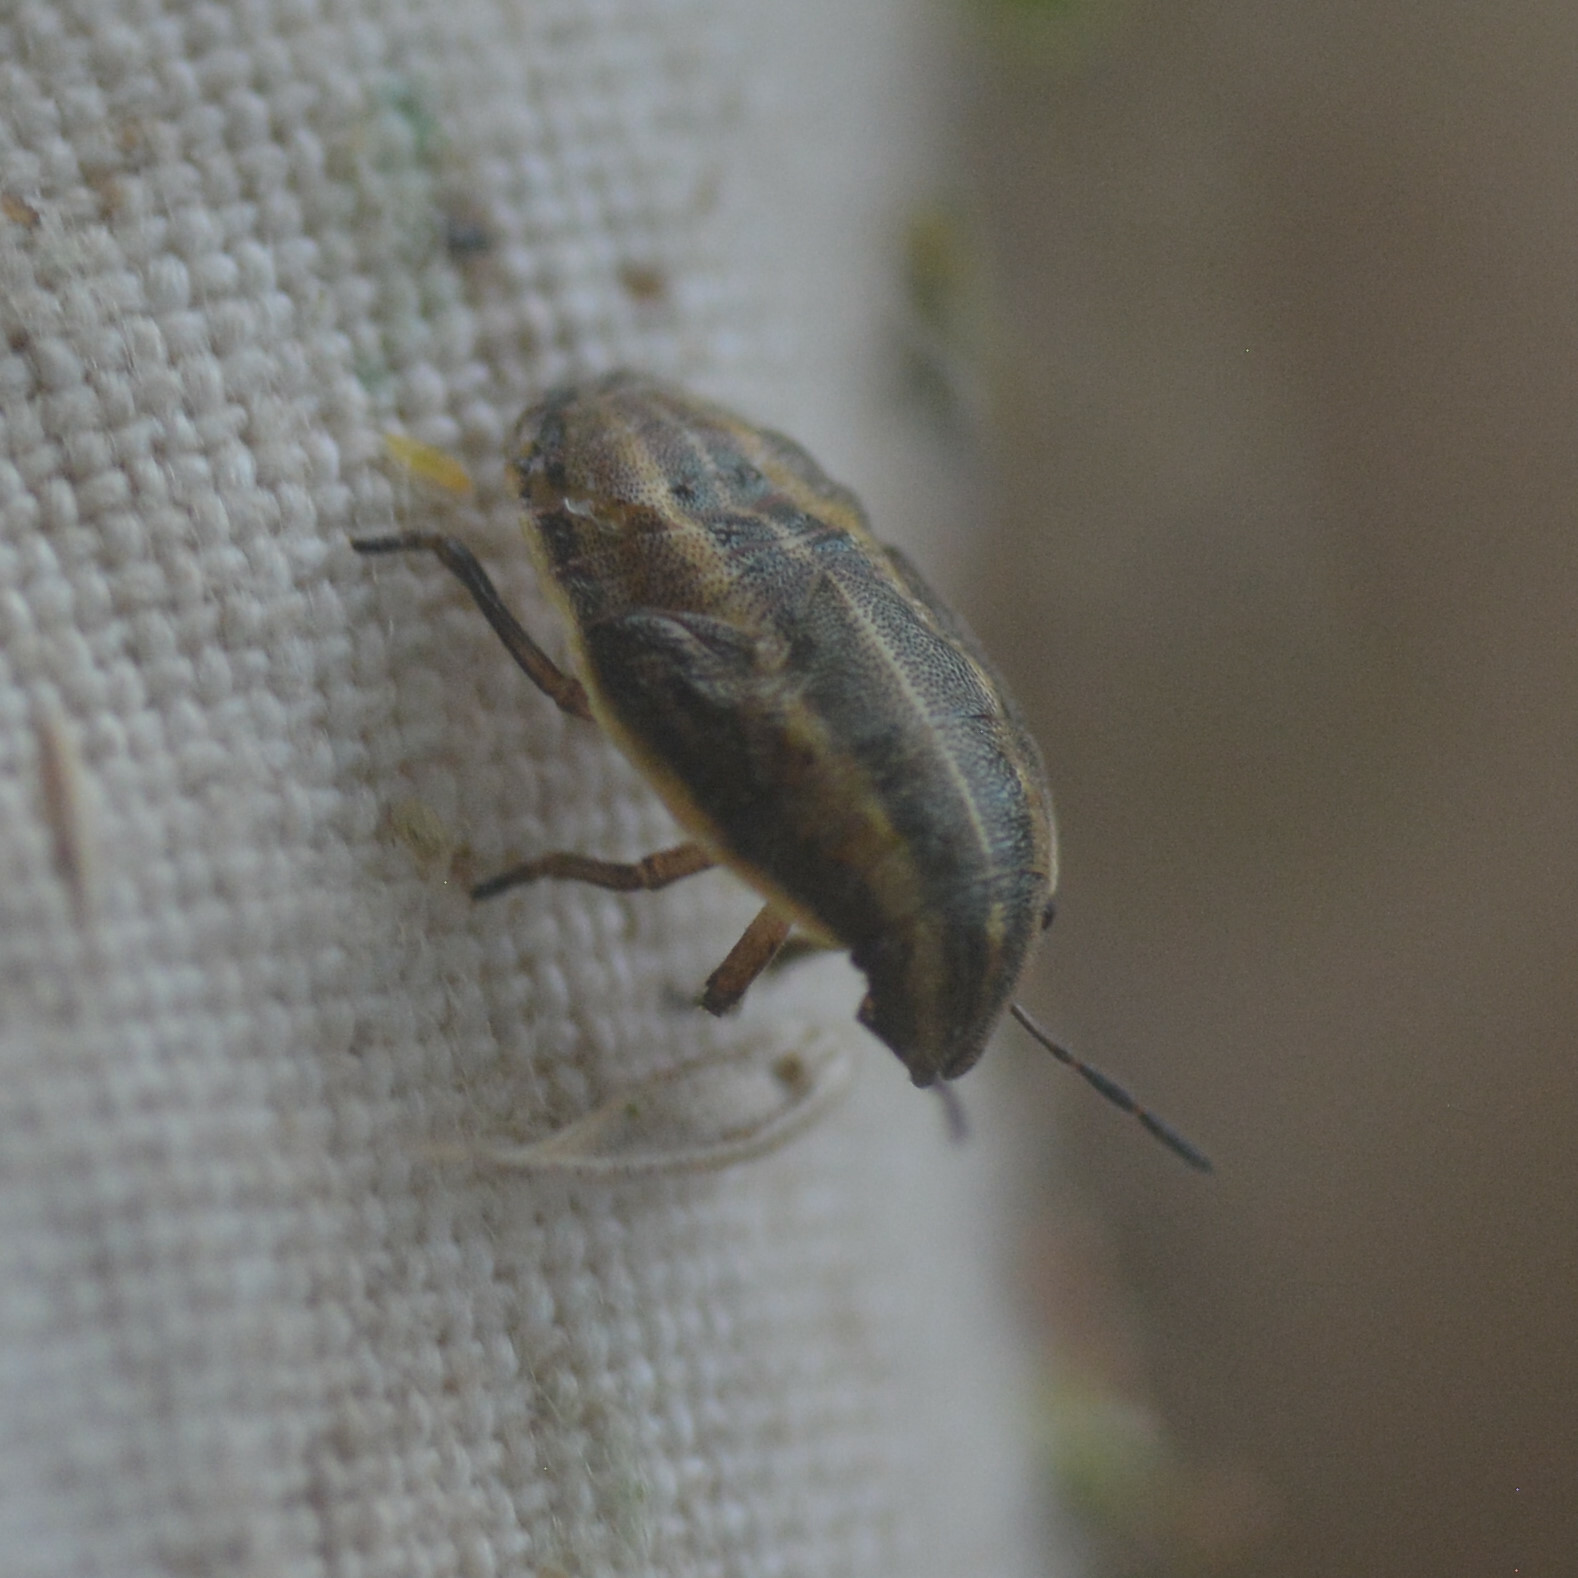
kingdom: Animalia
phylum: Arthropoda
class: Insecta
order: Hemiptera
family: Pentatomidae
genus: Aelia
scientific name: Aelia acuminata
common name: Bishop's mitre
